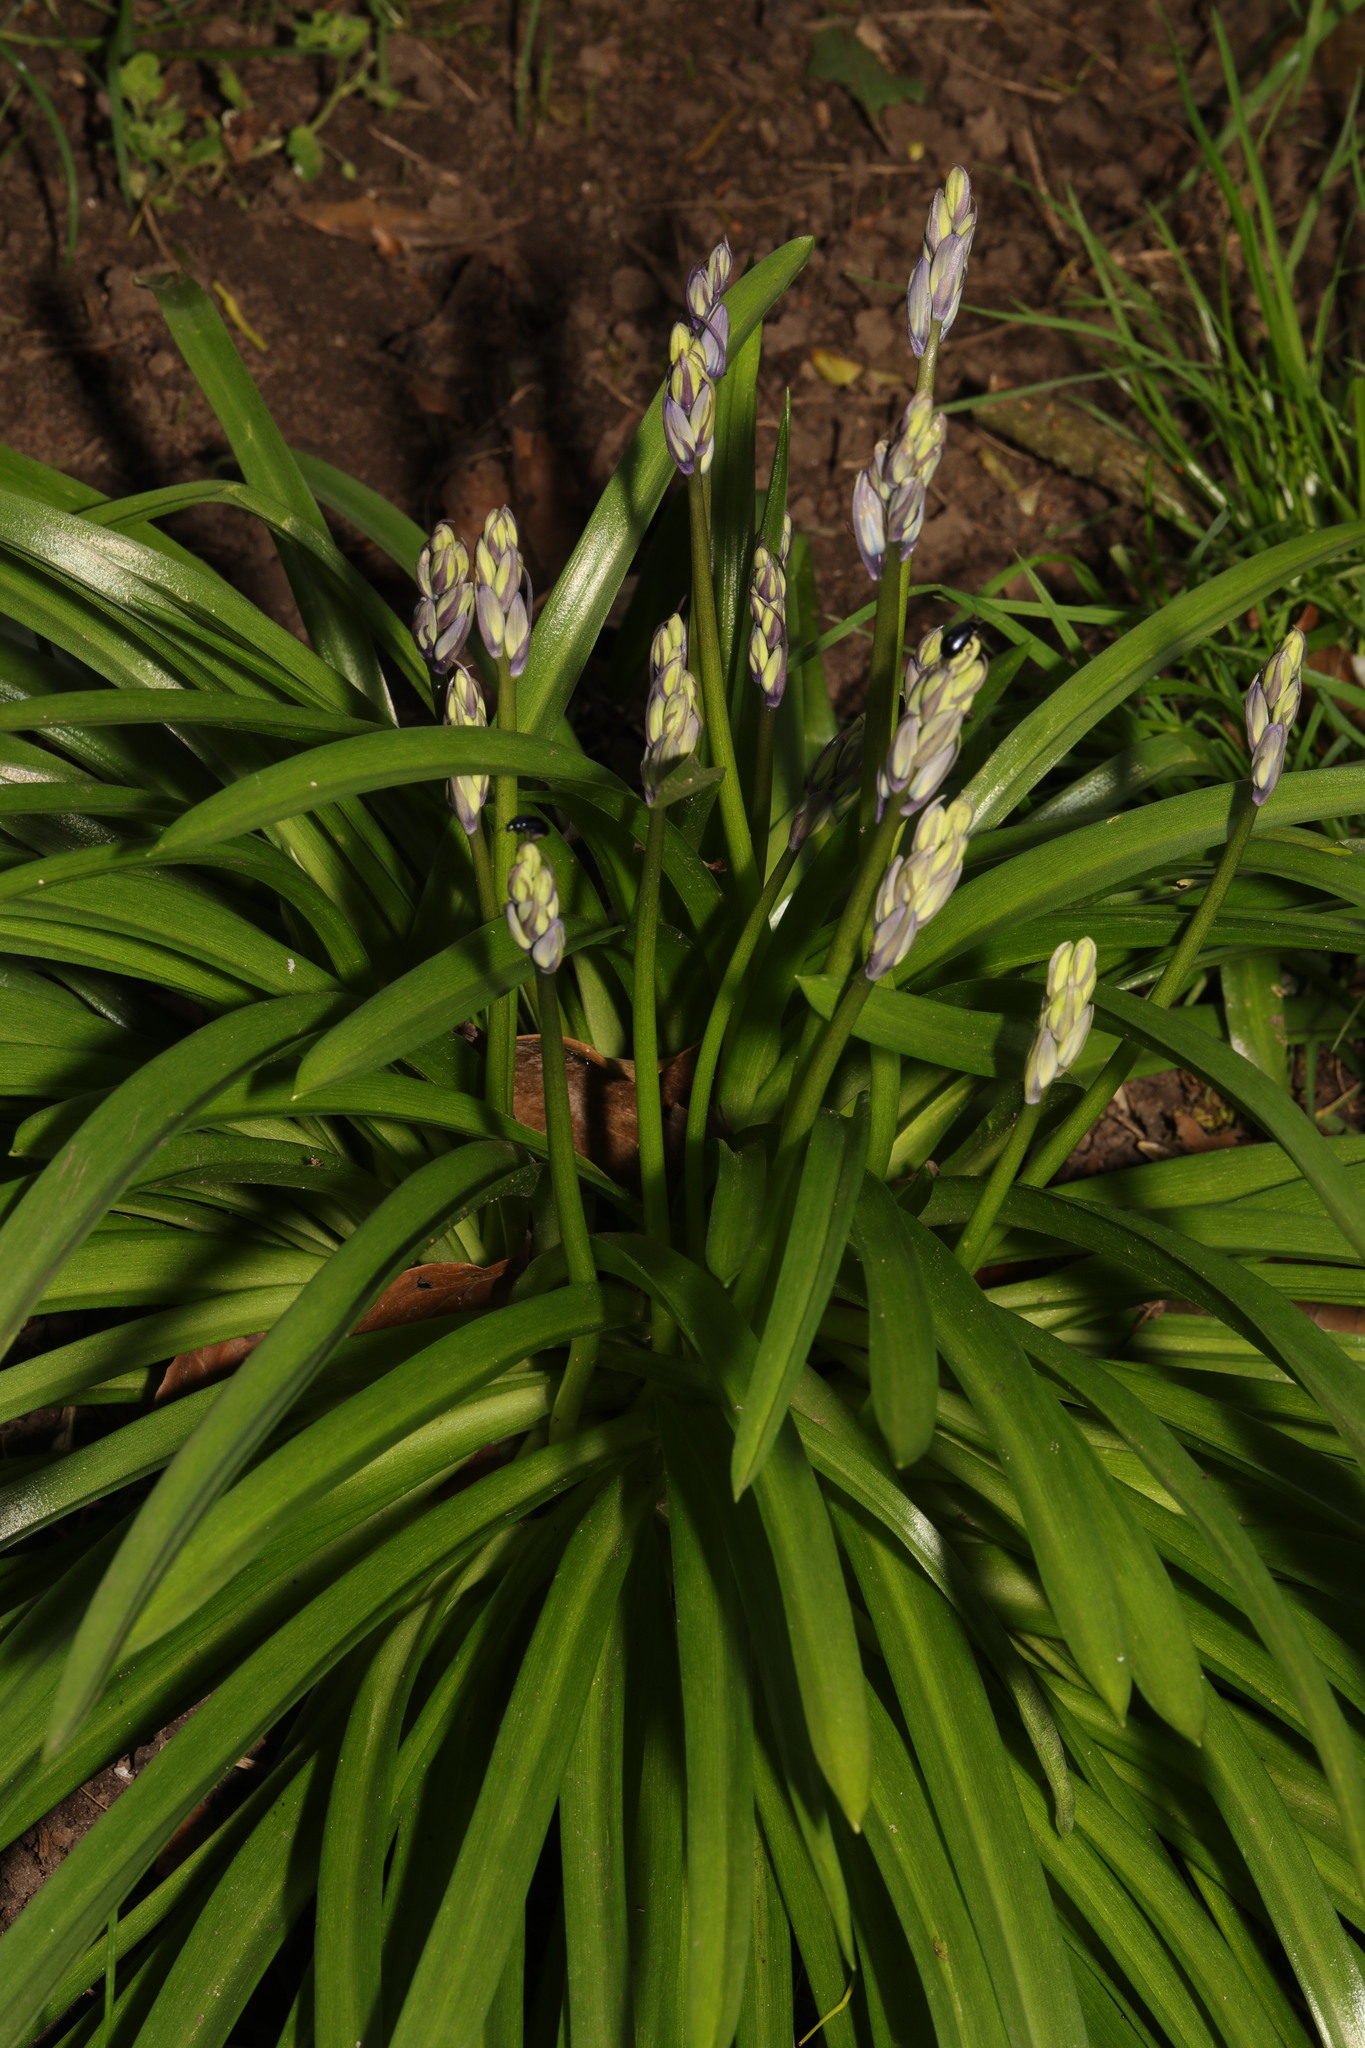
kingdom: Plantae
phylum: Tracheophyta
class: Liliopsida
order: Asparagales
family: Asparagaceae
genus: Hyacinthoides
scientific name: Hyacinthoides massartiana
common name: Hyacinthoides
